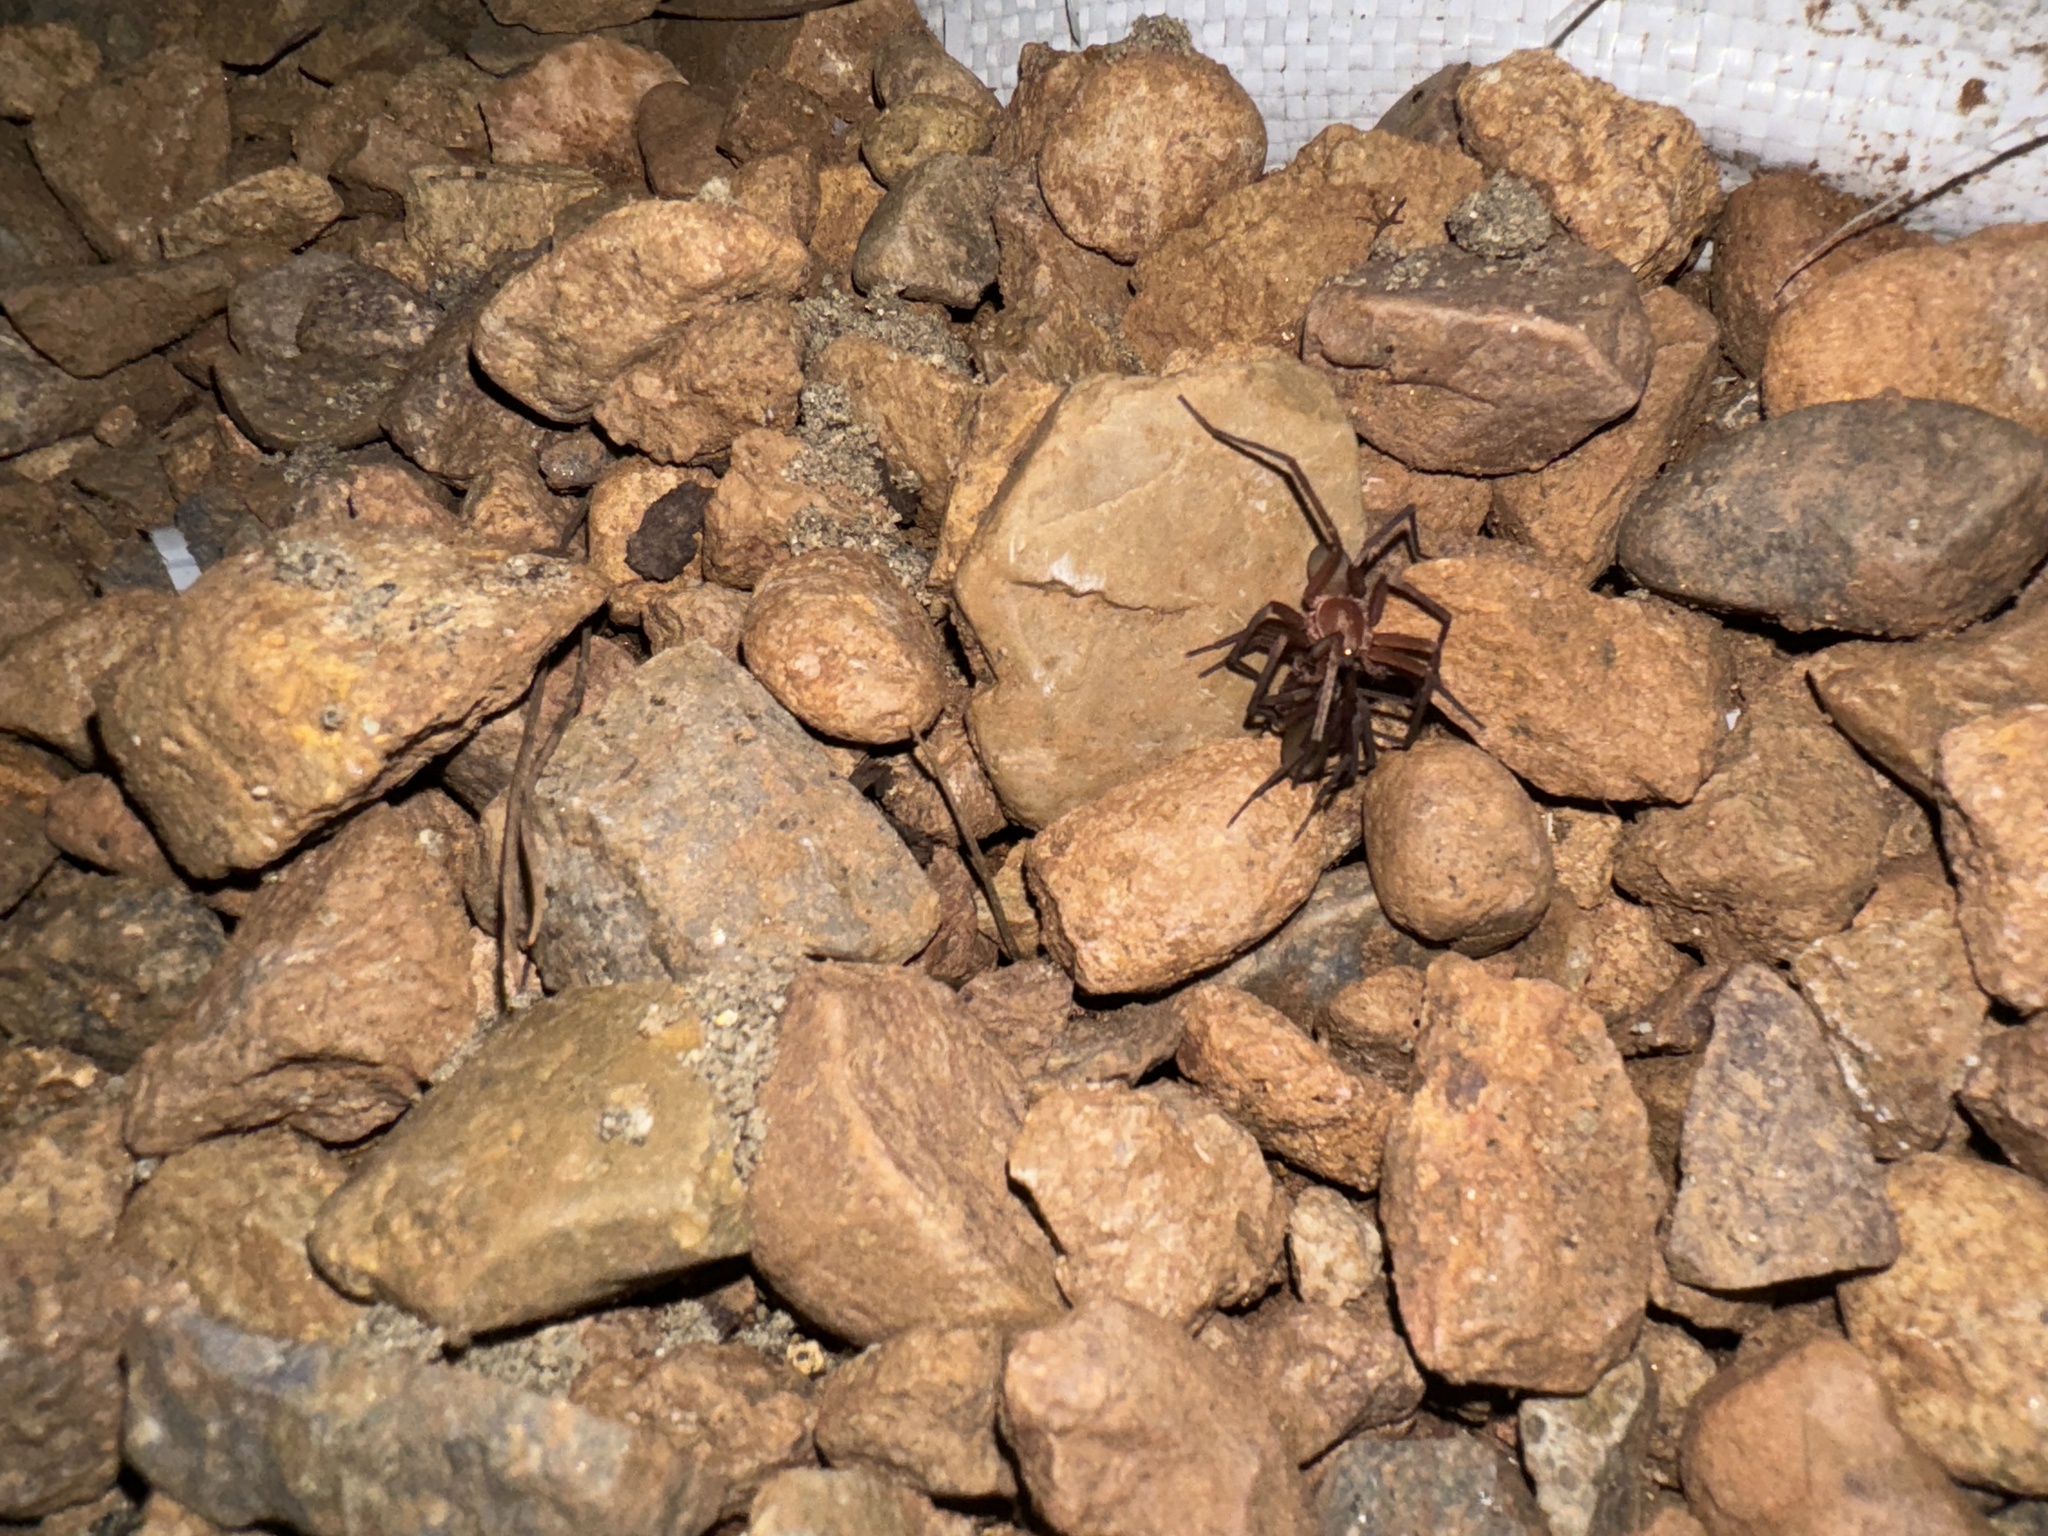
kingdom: Animalia
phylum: Arthropoda
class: Arachnida
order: Araneae
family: Zoropsidae
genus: Titiotus
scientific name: Titiotus
